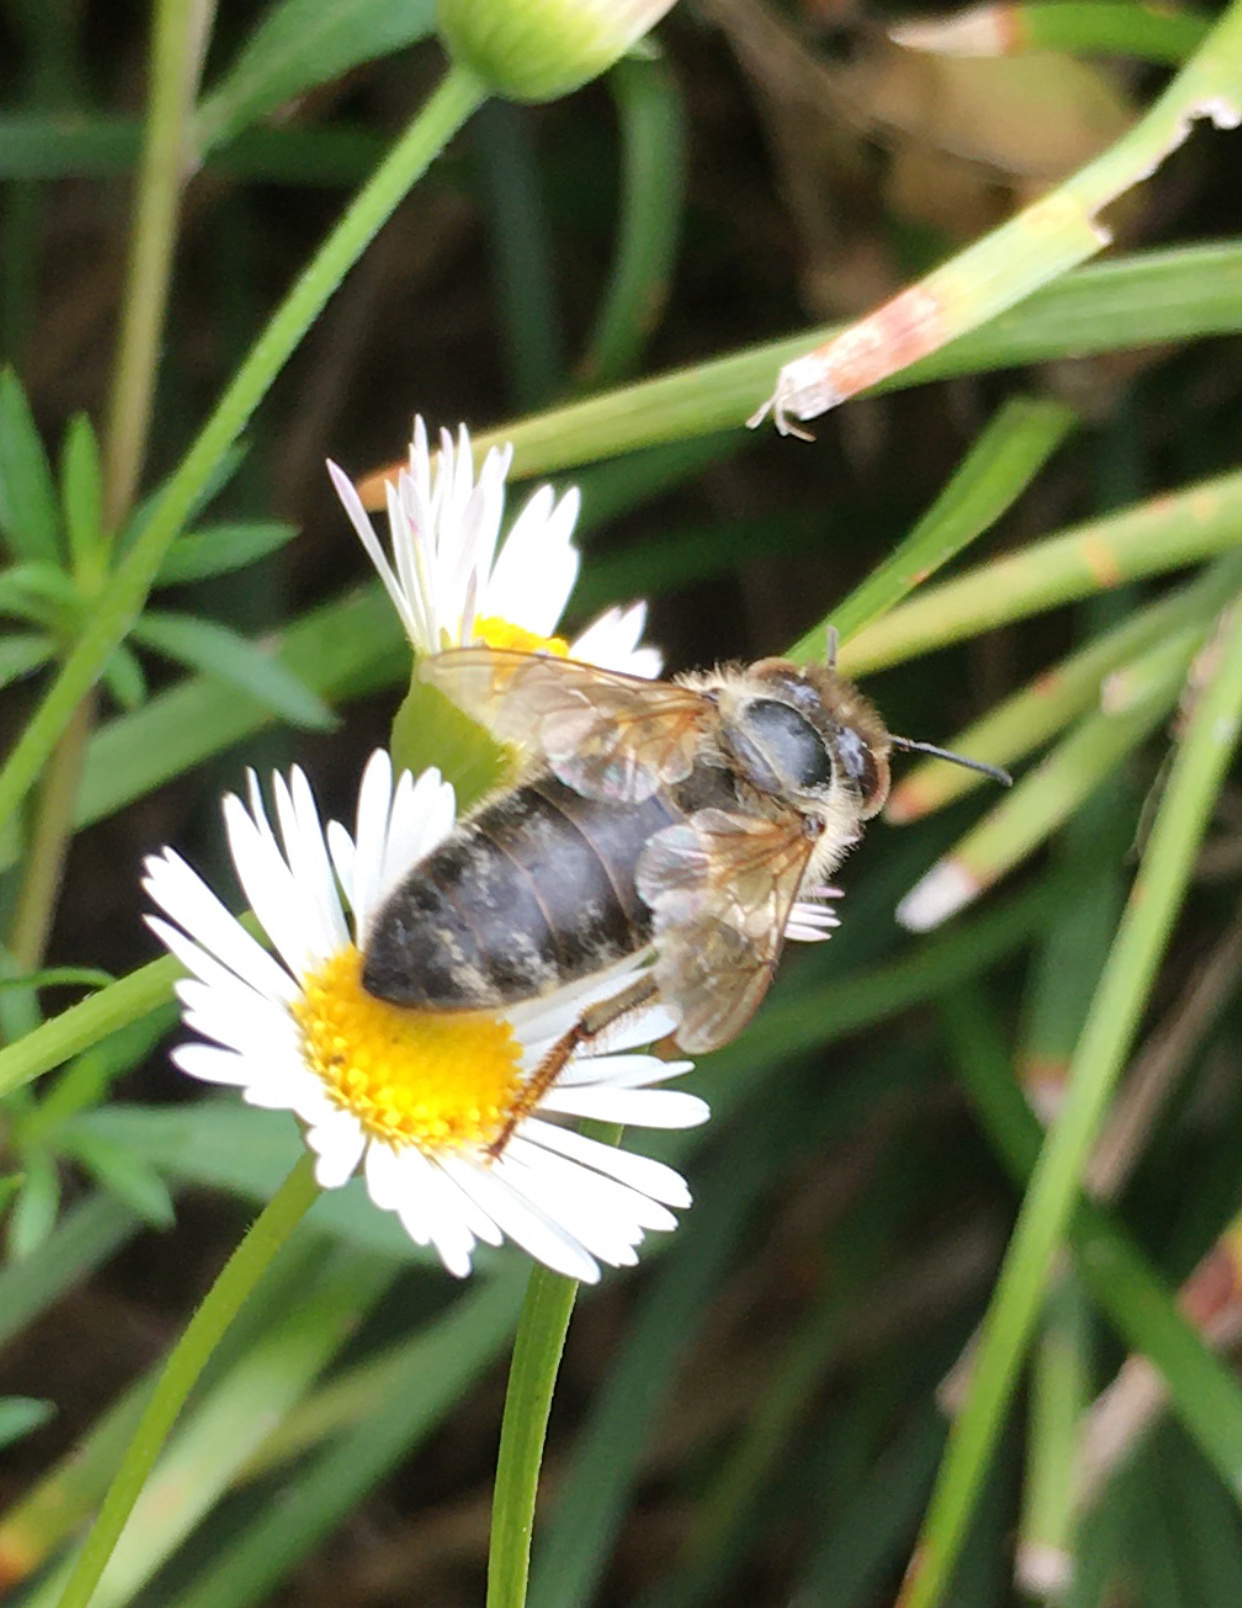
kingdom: Animalia
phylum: Arthropoda
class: Insecta
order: Hymenoptera
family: Apidae
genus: Apis
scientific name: Apis mellifera
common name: Honey bee
